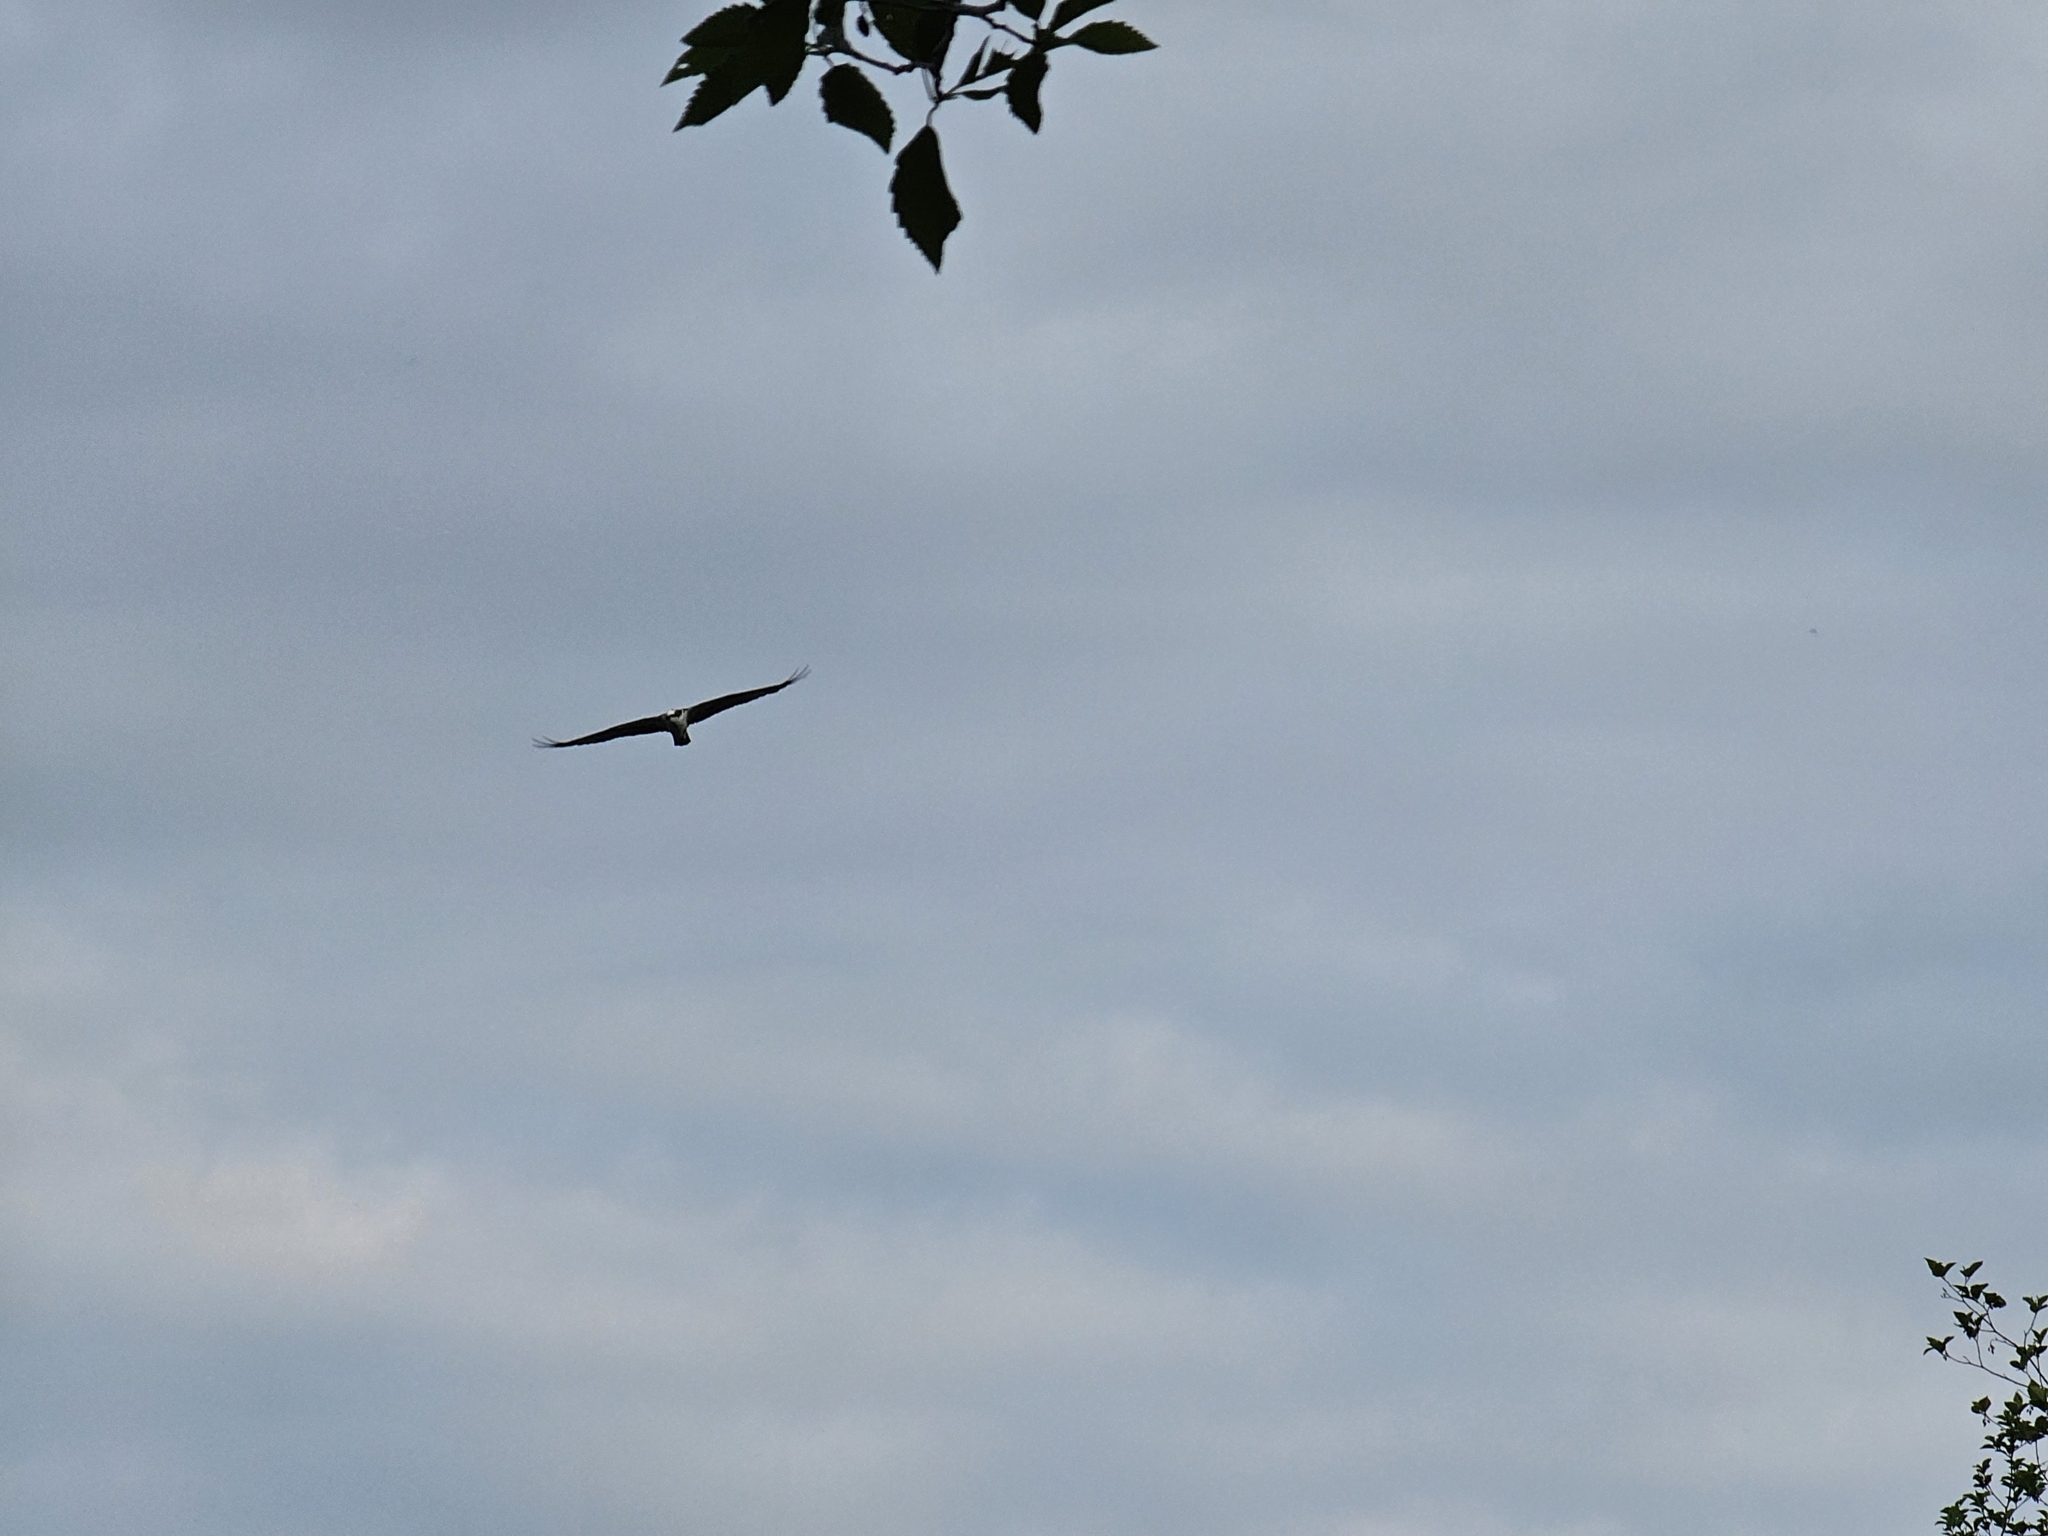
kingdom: Animalia
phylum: Chordata
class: Aves
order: Accipitriformes
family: Pandionidae
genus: Pandion
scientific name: Pandion haliaetus
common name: Osprey
